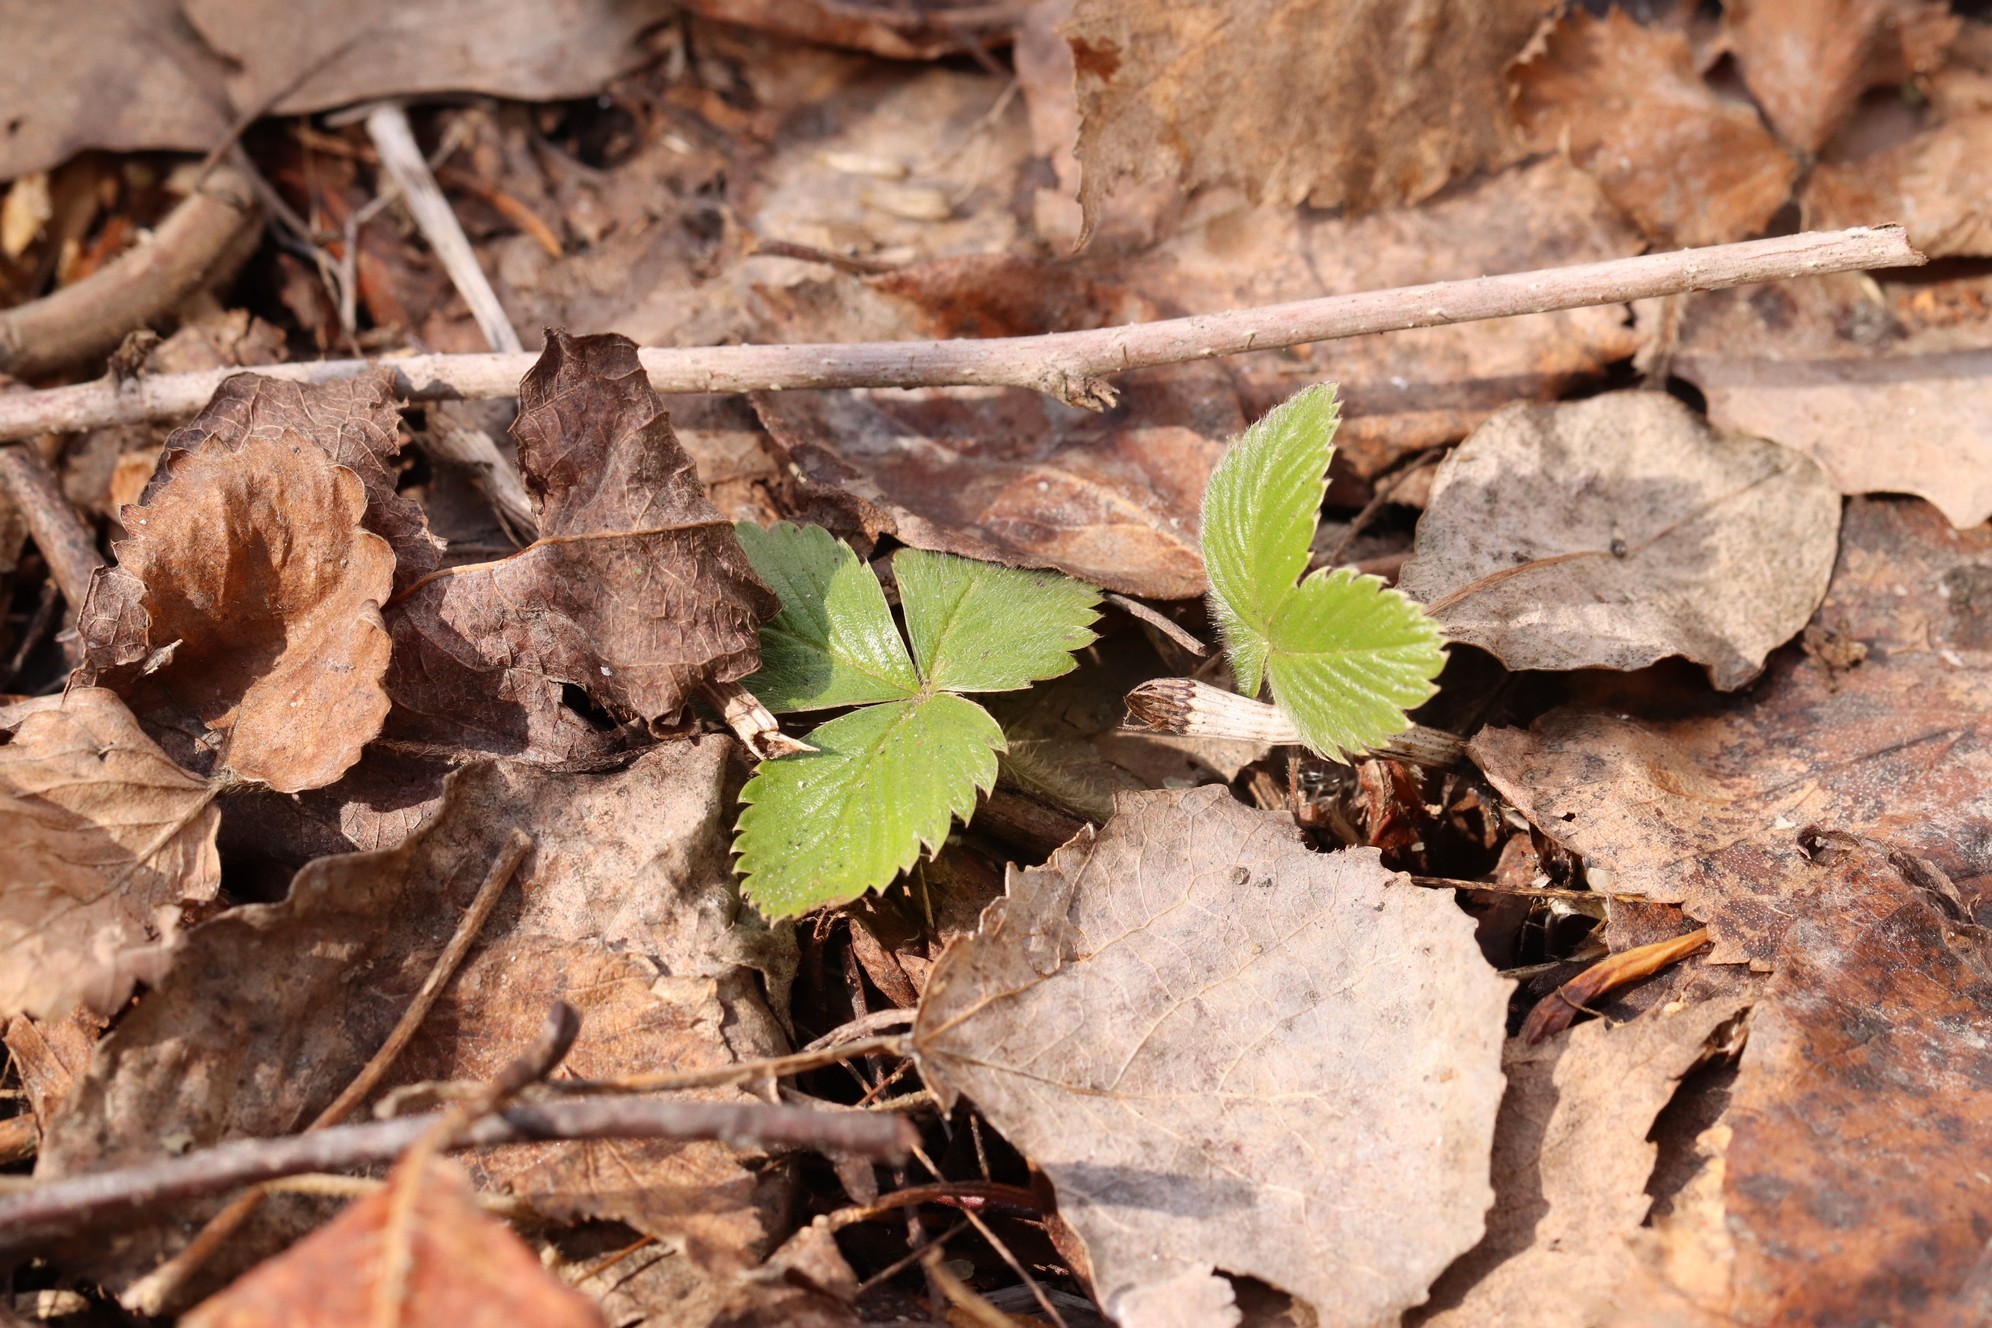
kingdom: Plantae
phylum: Tracheophyta
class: Magnoliopsida
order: Rosales
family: Rosaceae
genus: Fragaria
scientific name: Fragaria vesca
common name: Wild strawberry
